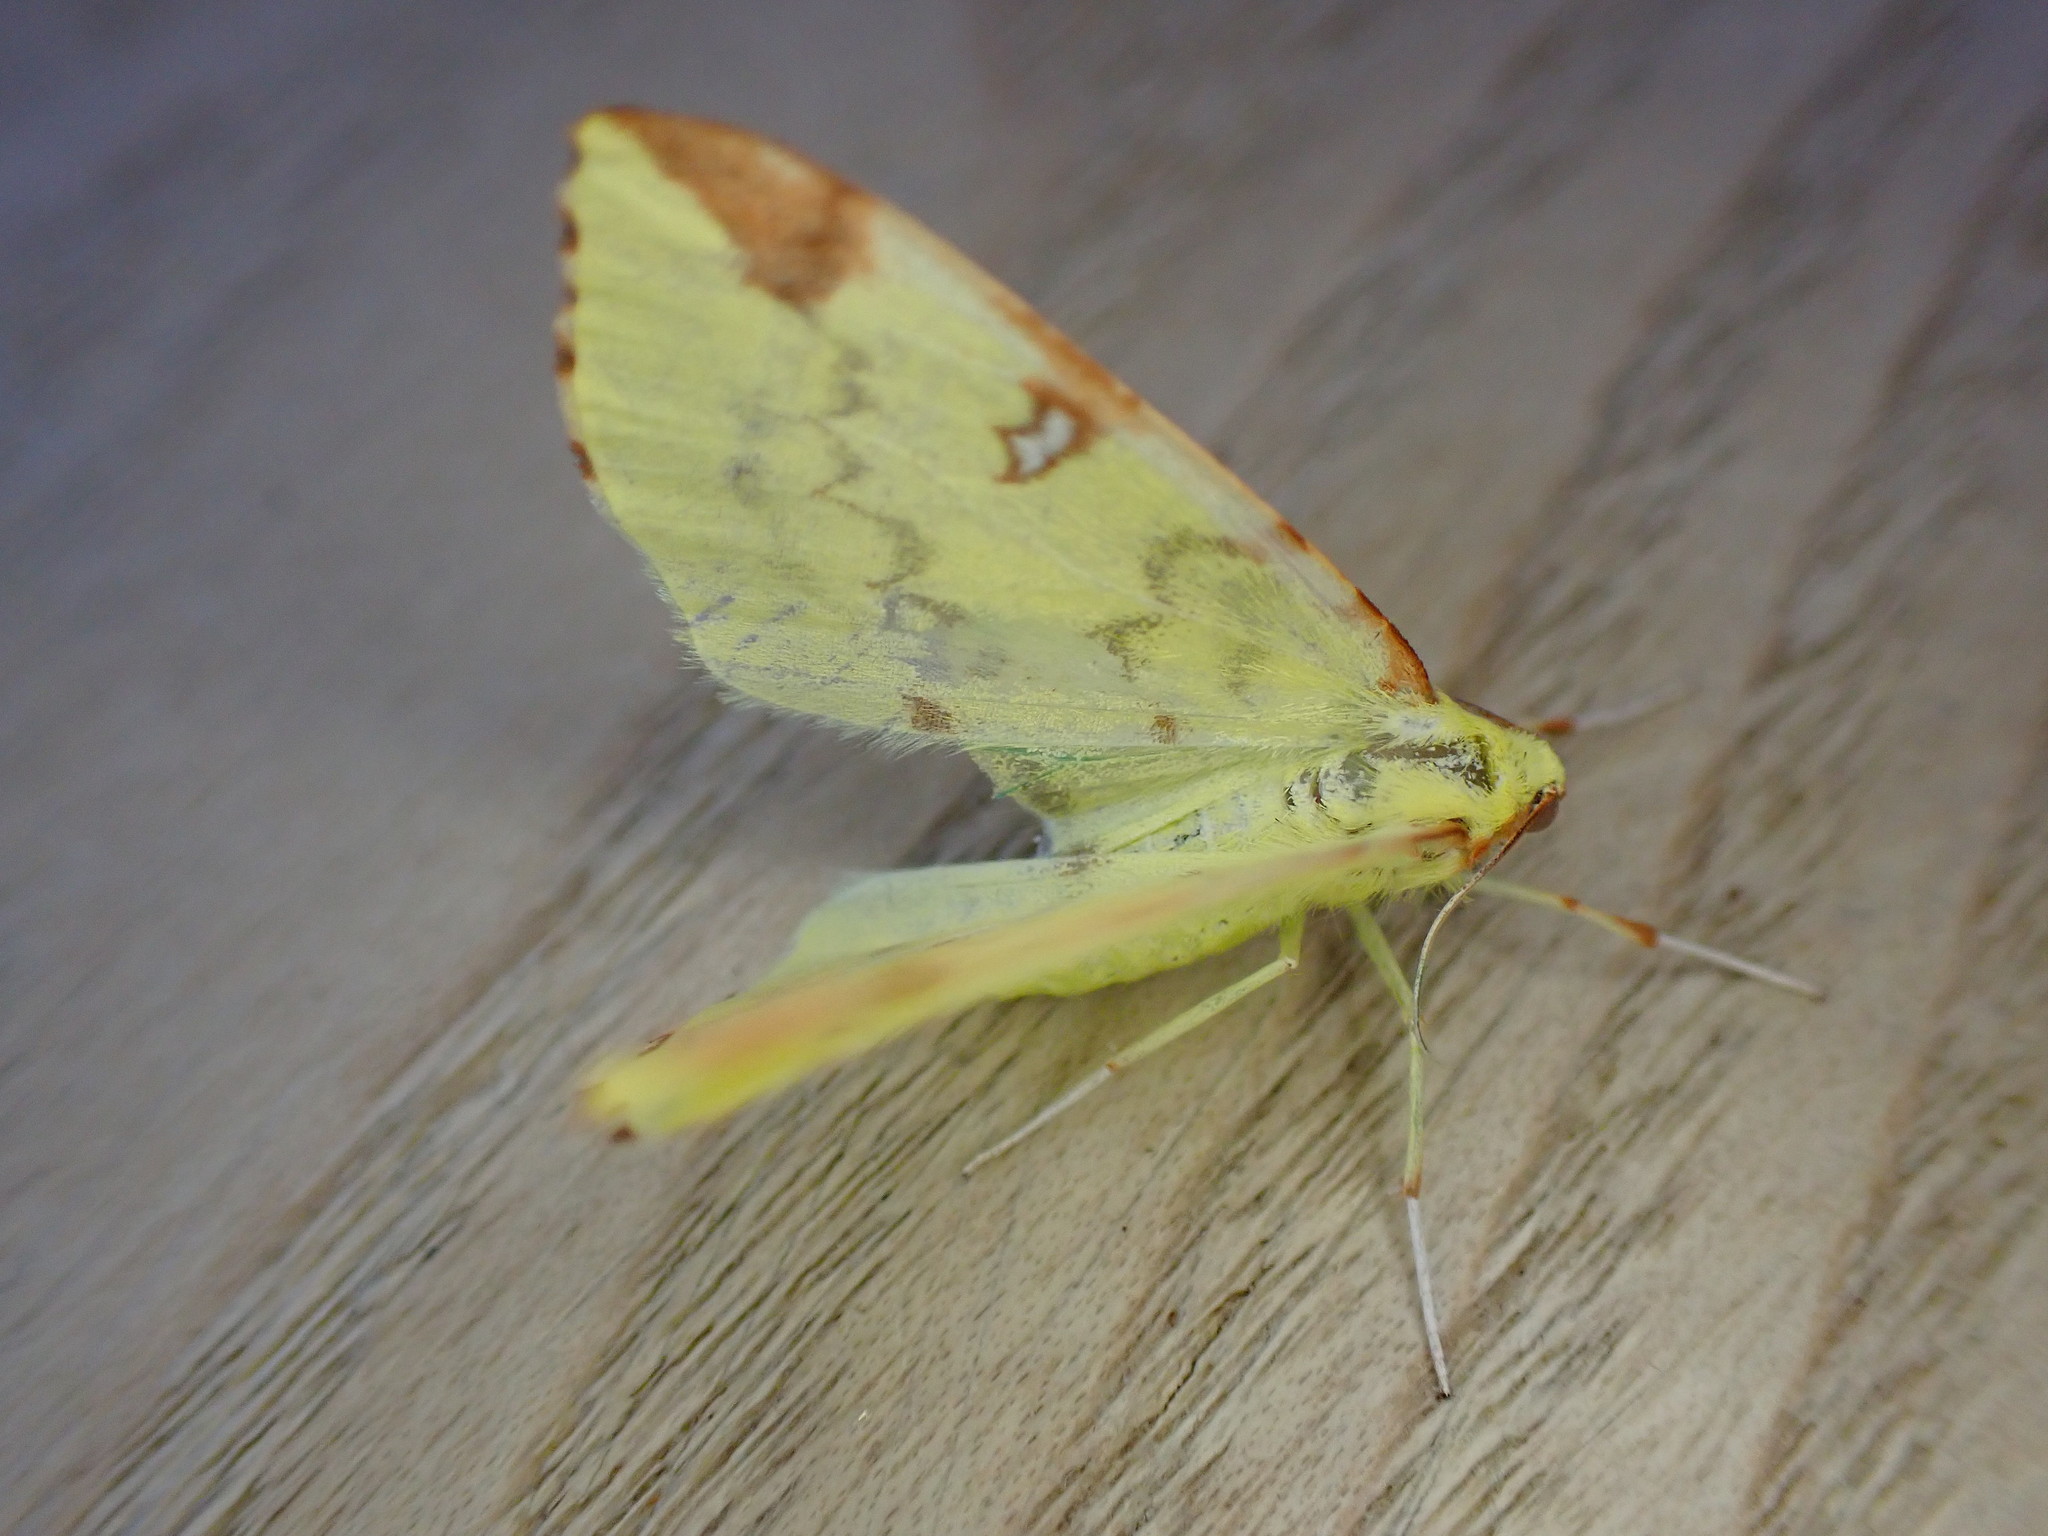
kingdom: Animalia
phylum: Arthropoda
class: Insecta
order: Lepidoptera
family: Geometridae
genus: Opisthograptis
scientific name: Opisthograptis luteolata
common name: Brimstone moth
